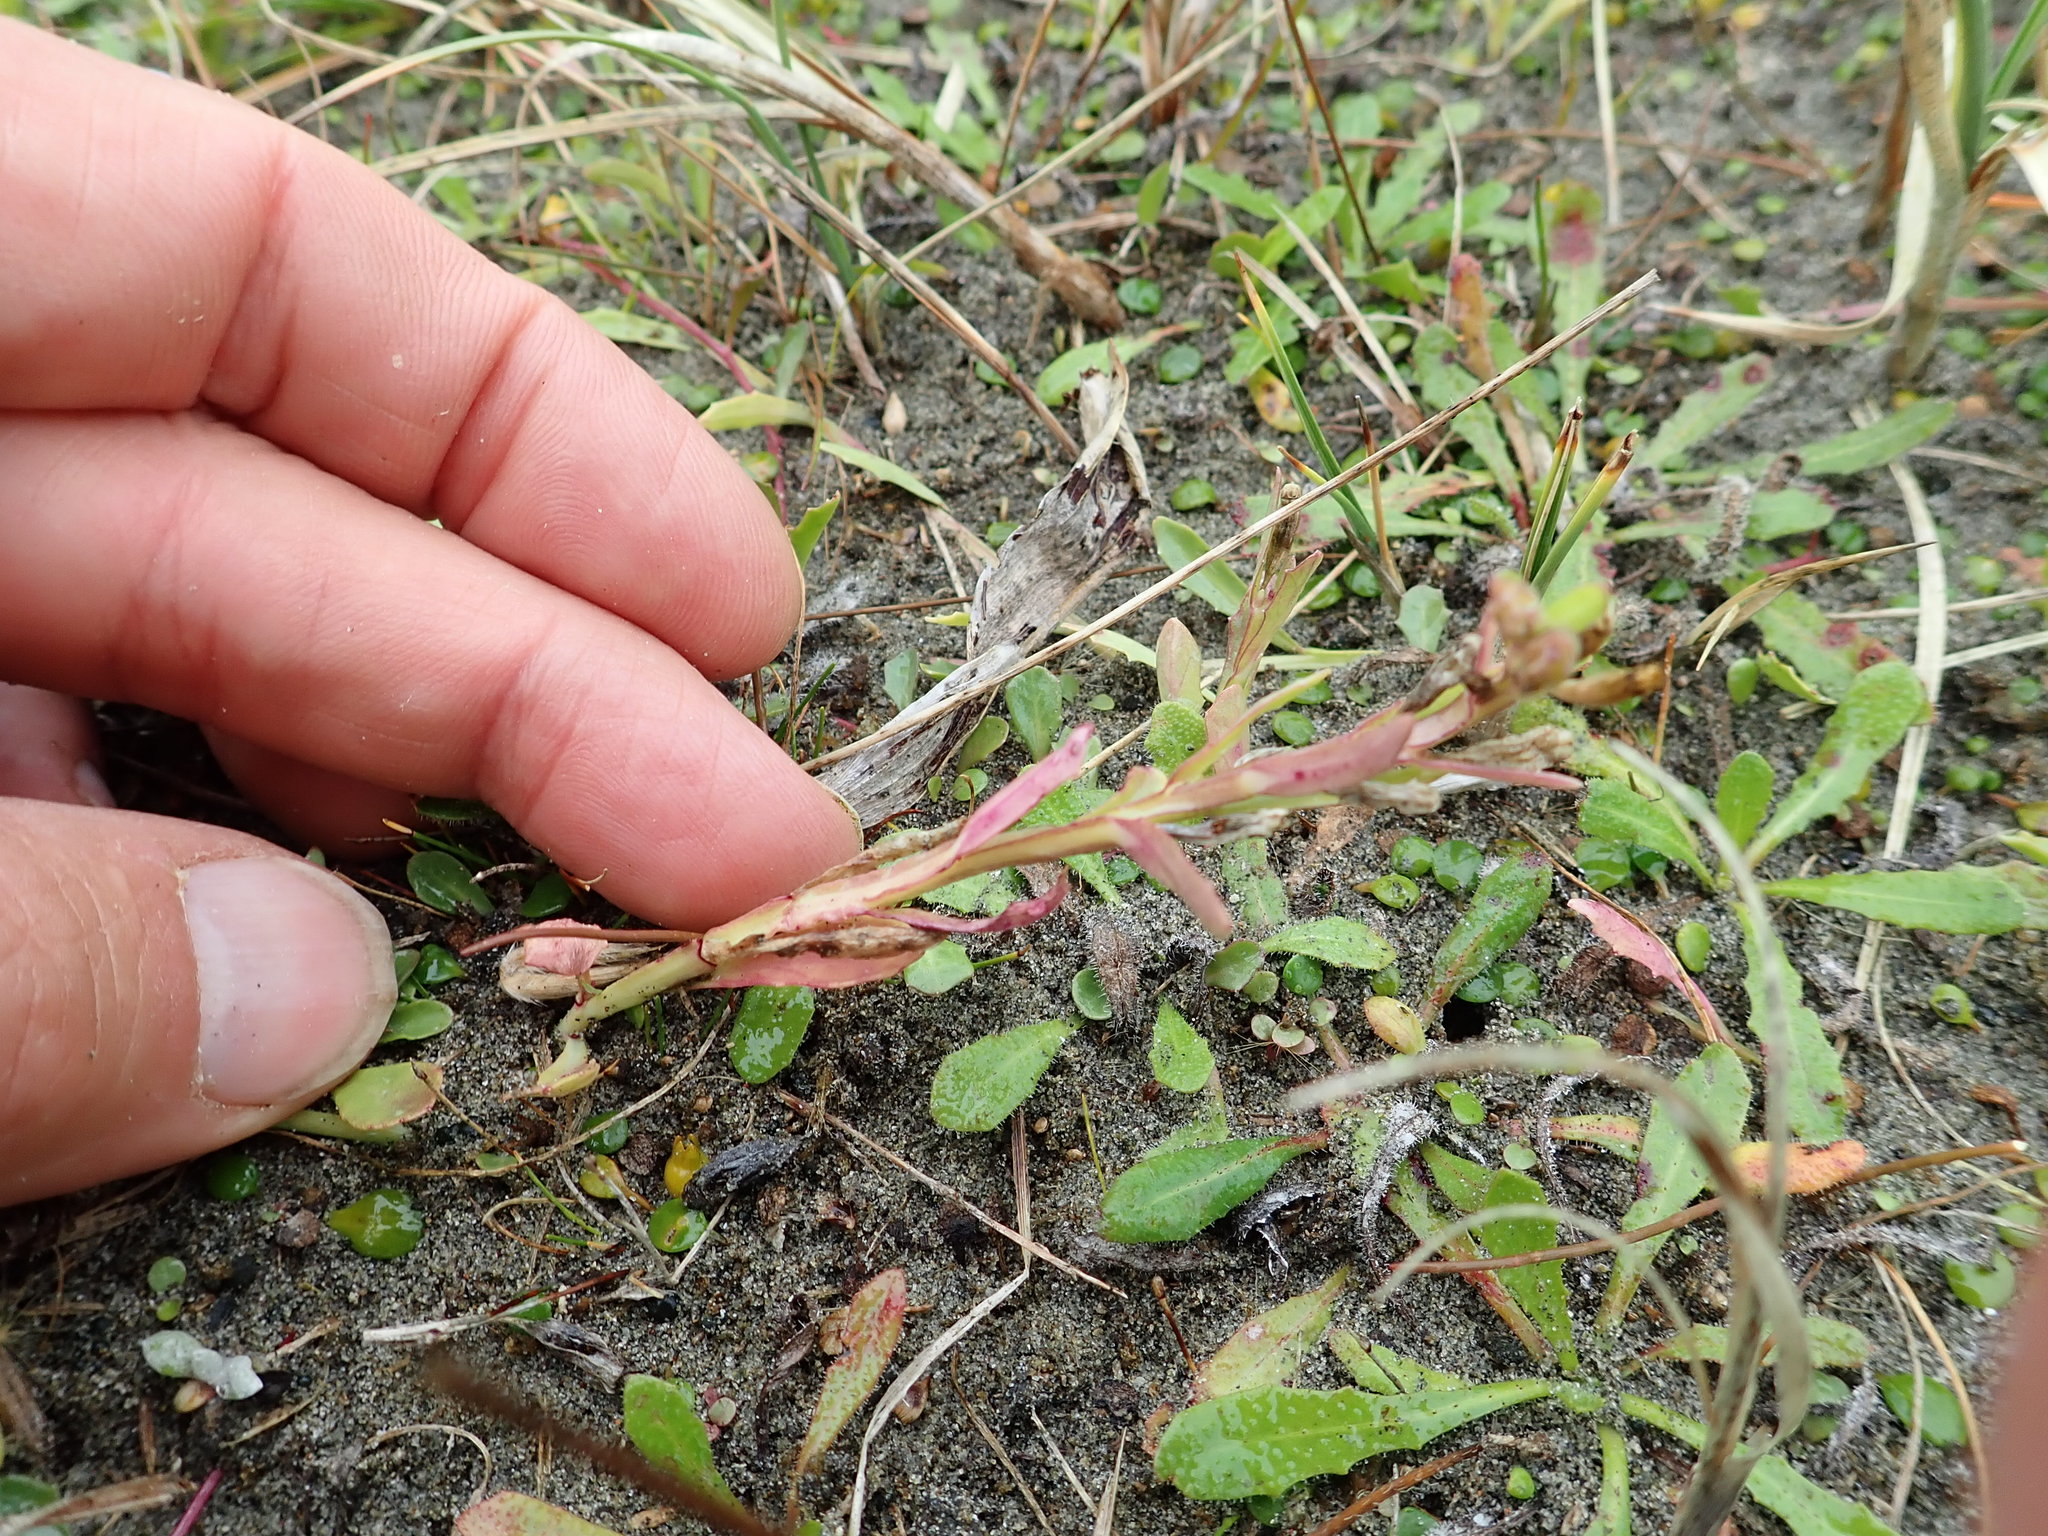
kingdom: Plantae
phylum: Tracheophyta
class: Magnoliopsida
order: Asterales
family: Campanulaceae
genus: Lobelia
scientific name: Lobelia anceps
